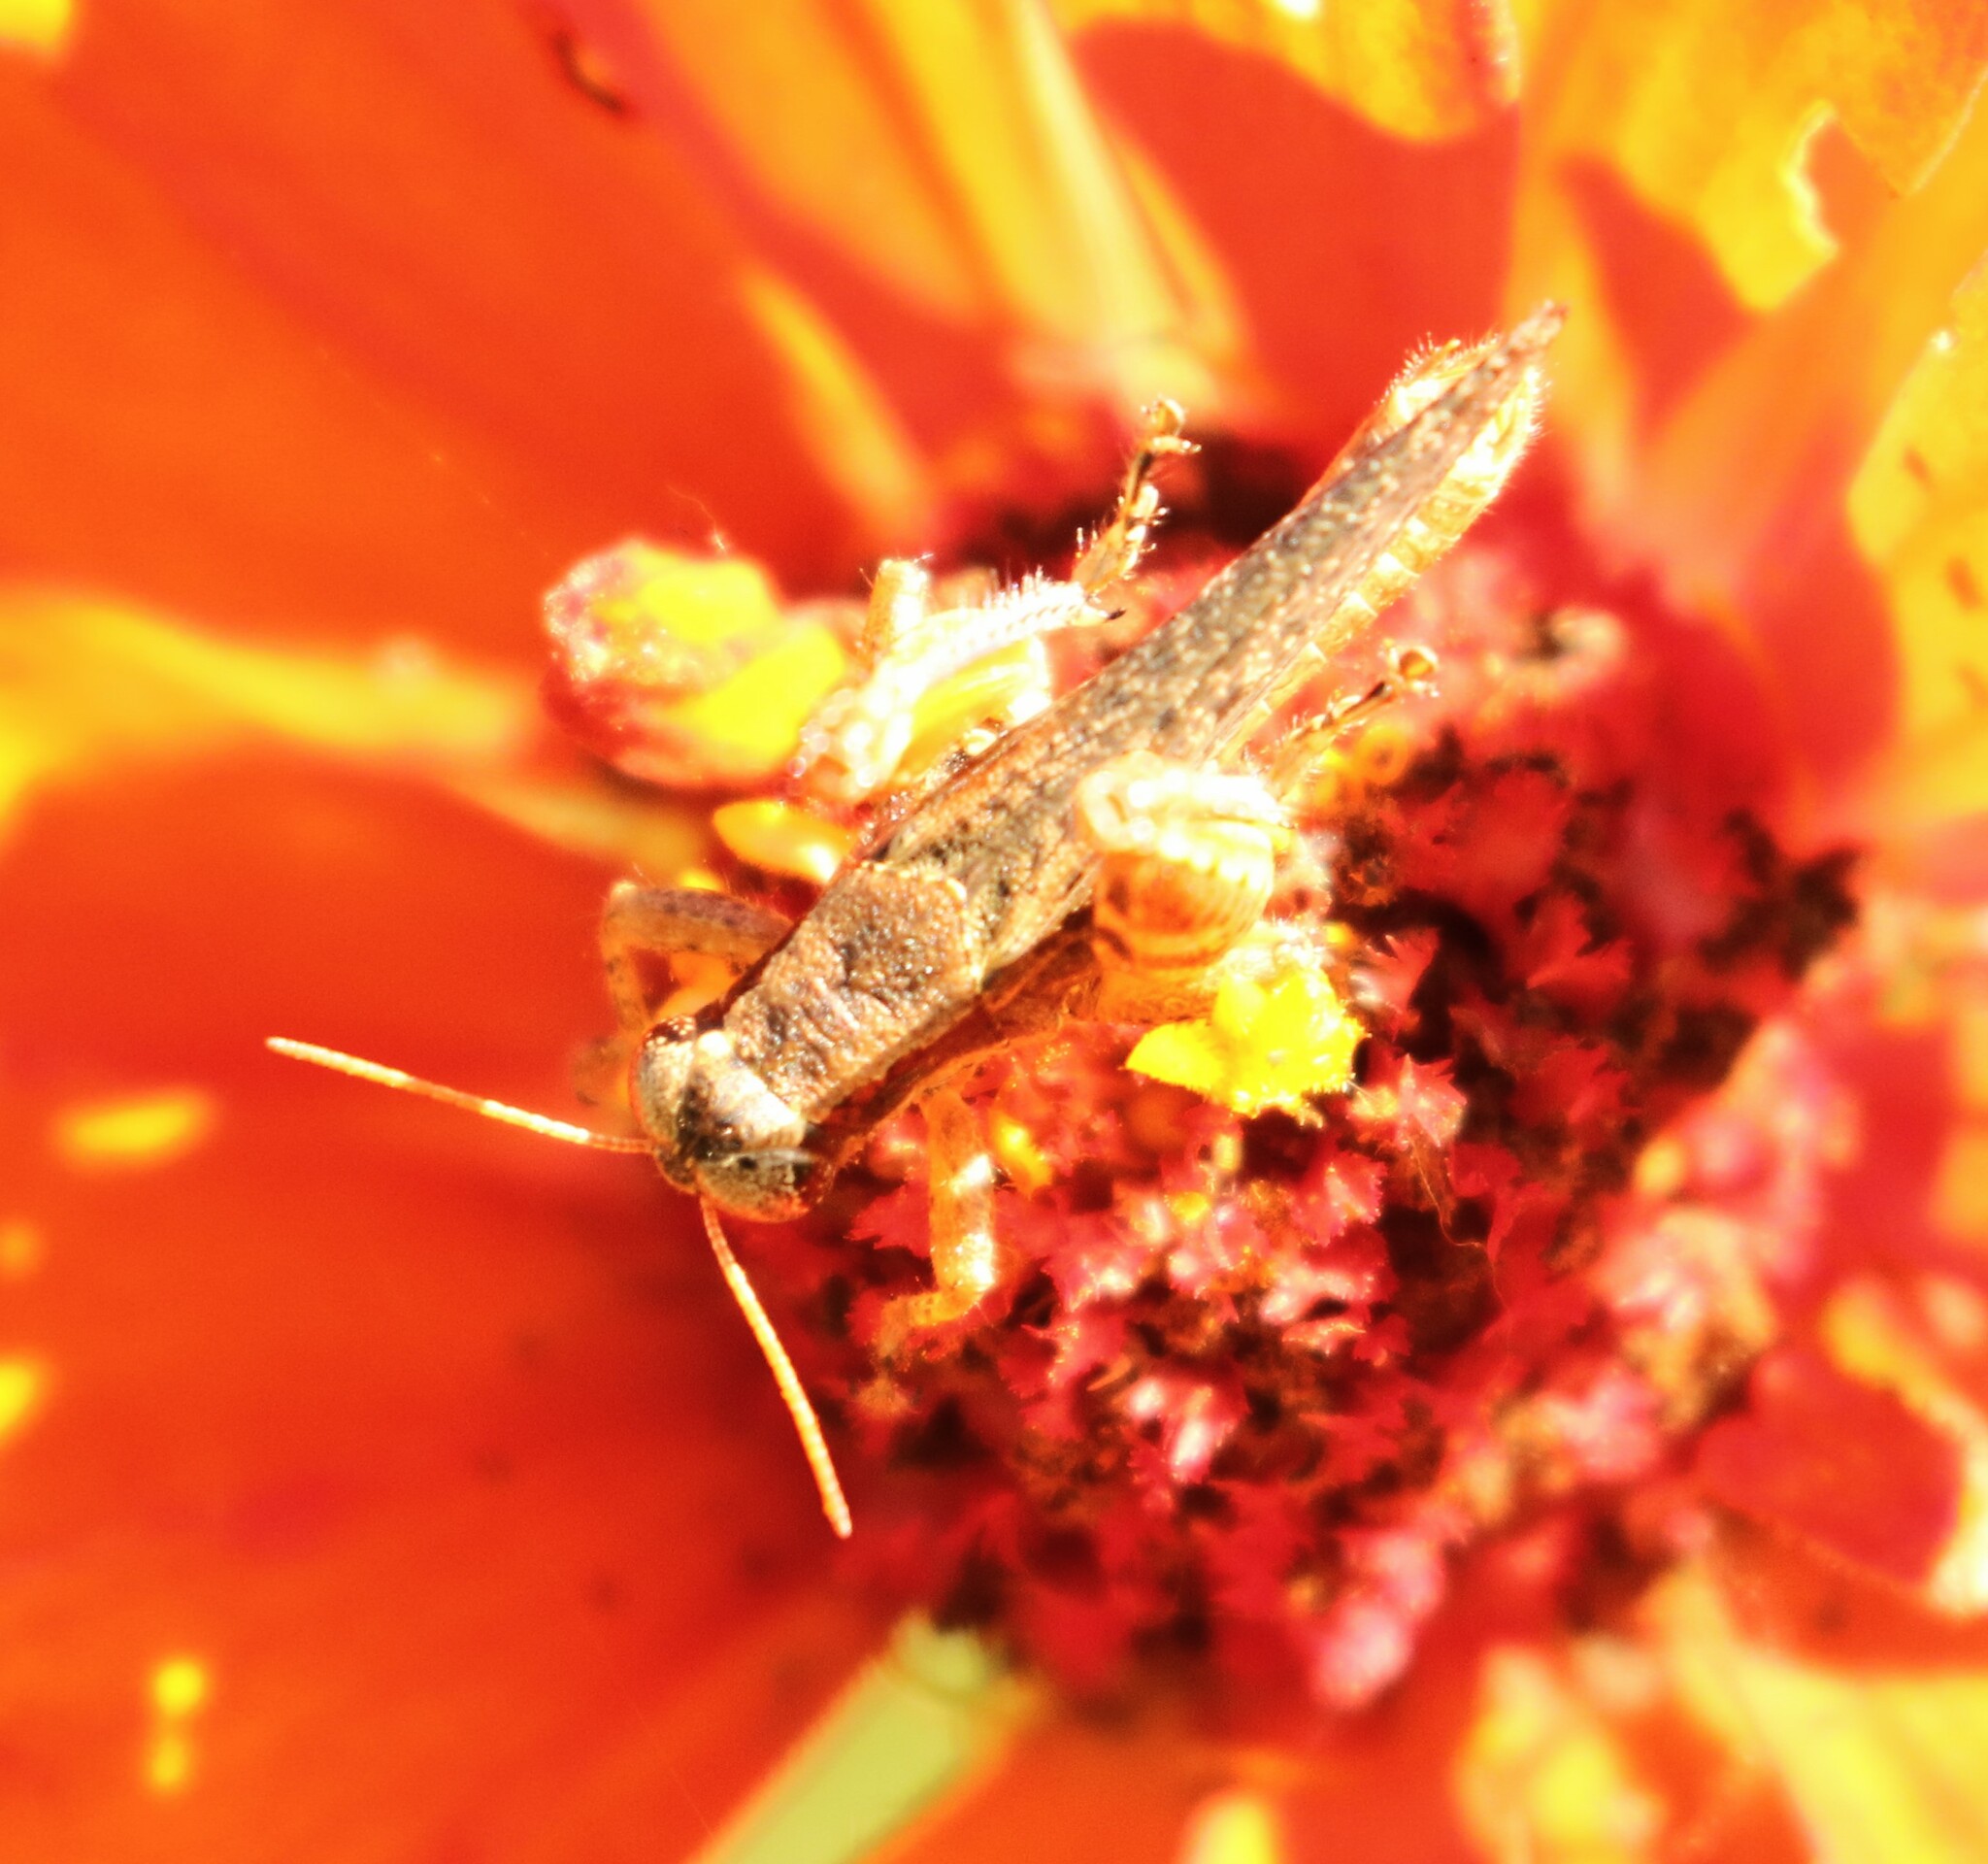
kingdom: Animalia
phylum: Arthropoda
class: Insecta
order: Orthoptera
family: Acrididae
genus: Aidemona
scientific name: Aidemona azteca
